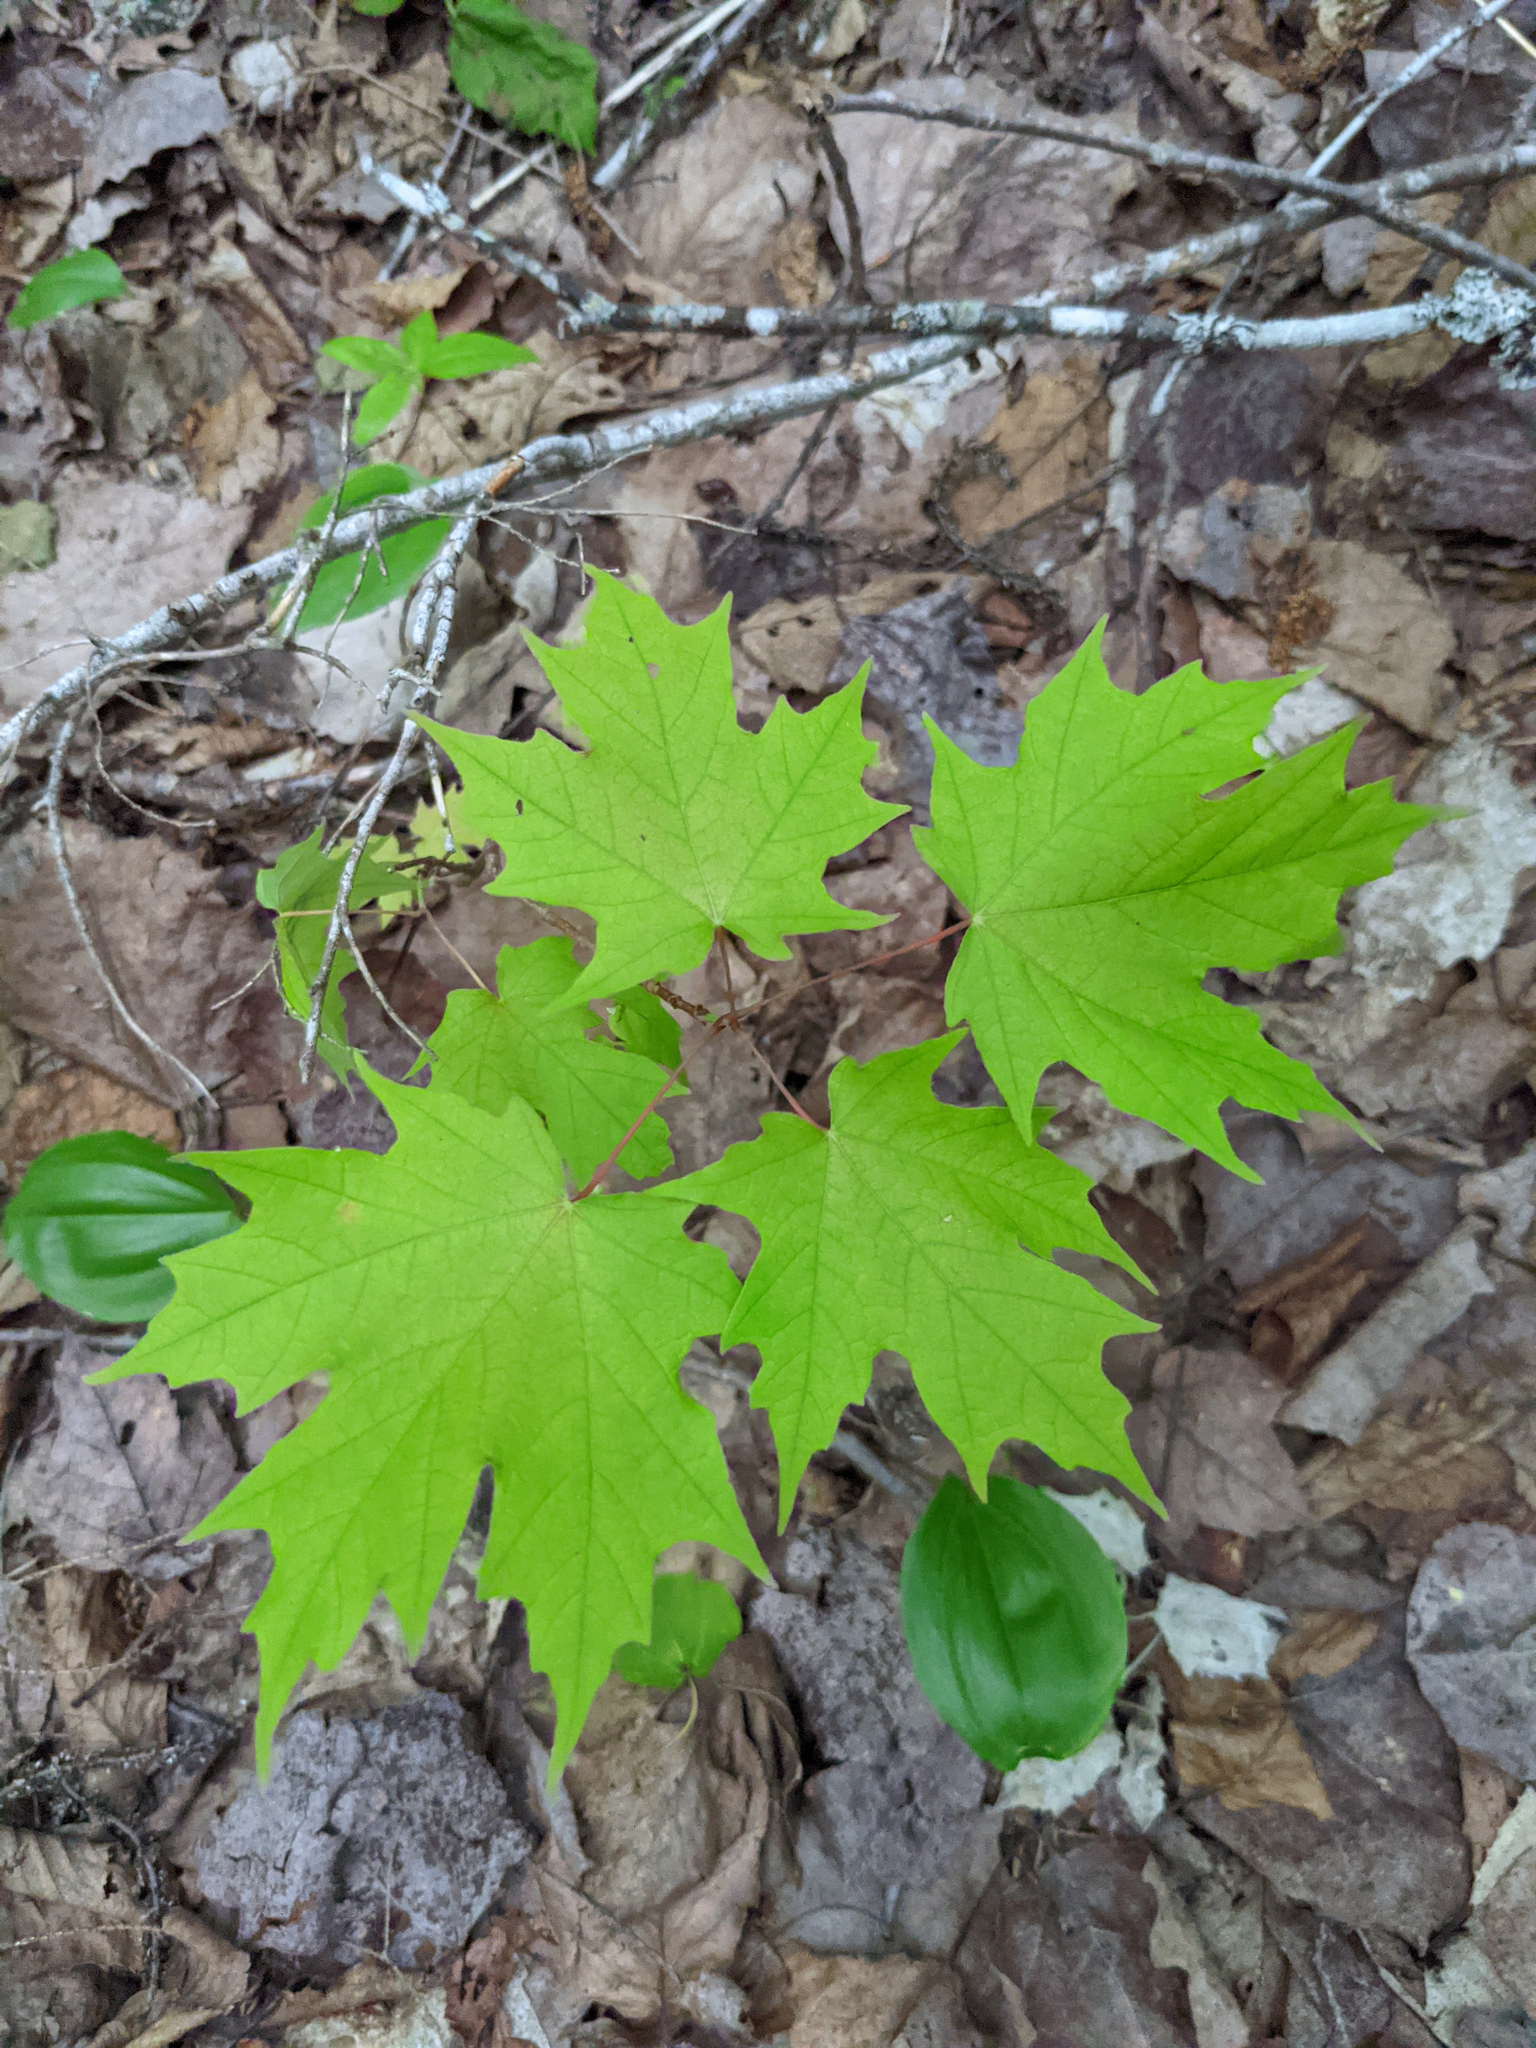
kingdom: Plantae
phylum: Tracheophyta
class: Magnoliopsida
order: Sapindales
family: Sapindaceae
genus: Acer
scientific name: Acer saccharum
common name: Sugar maple
